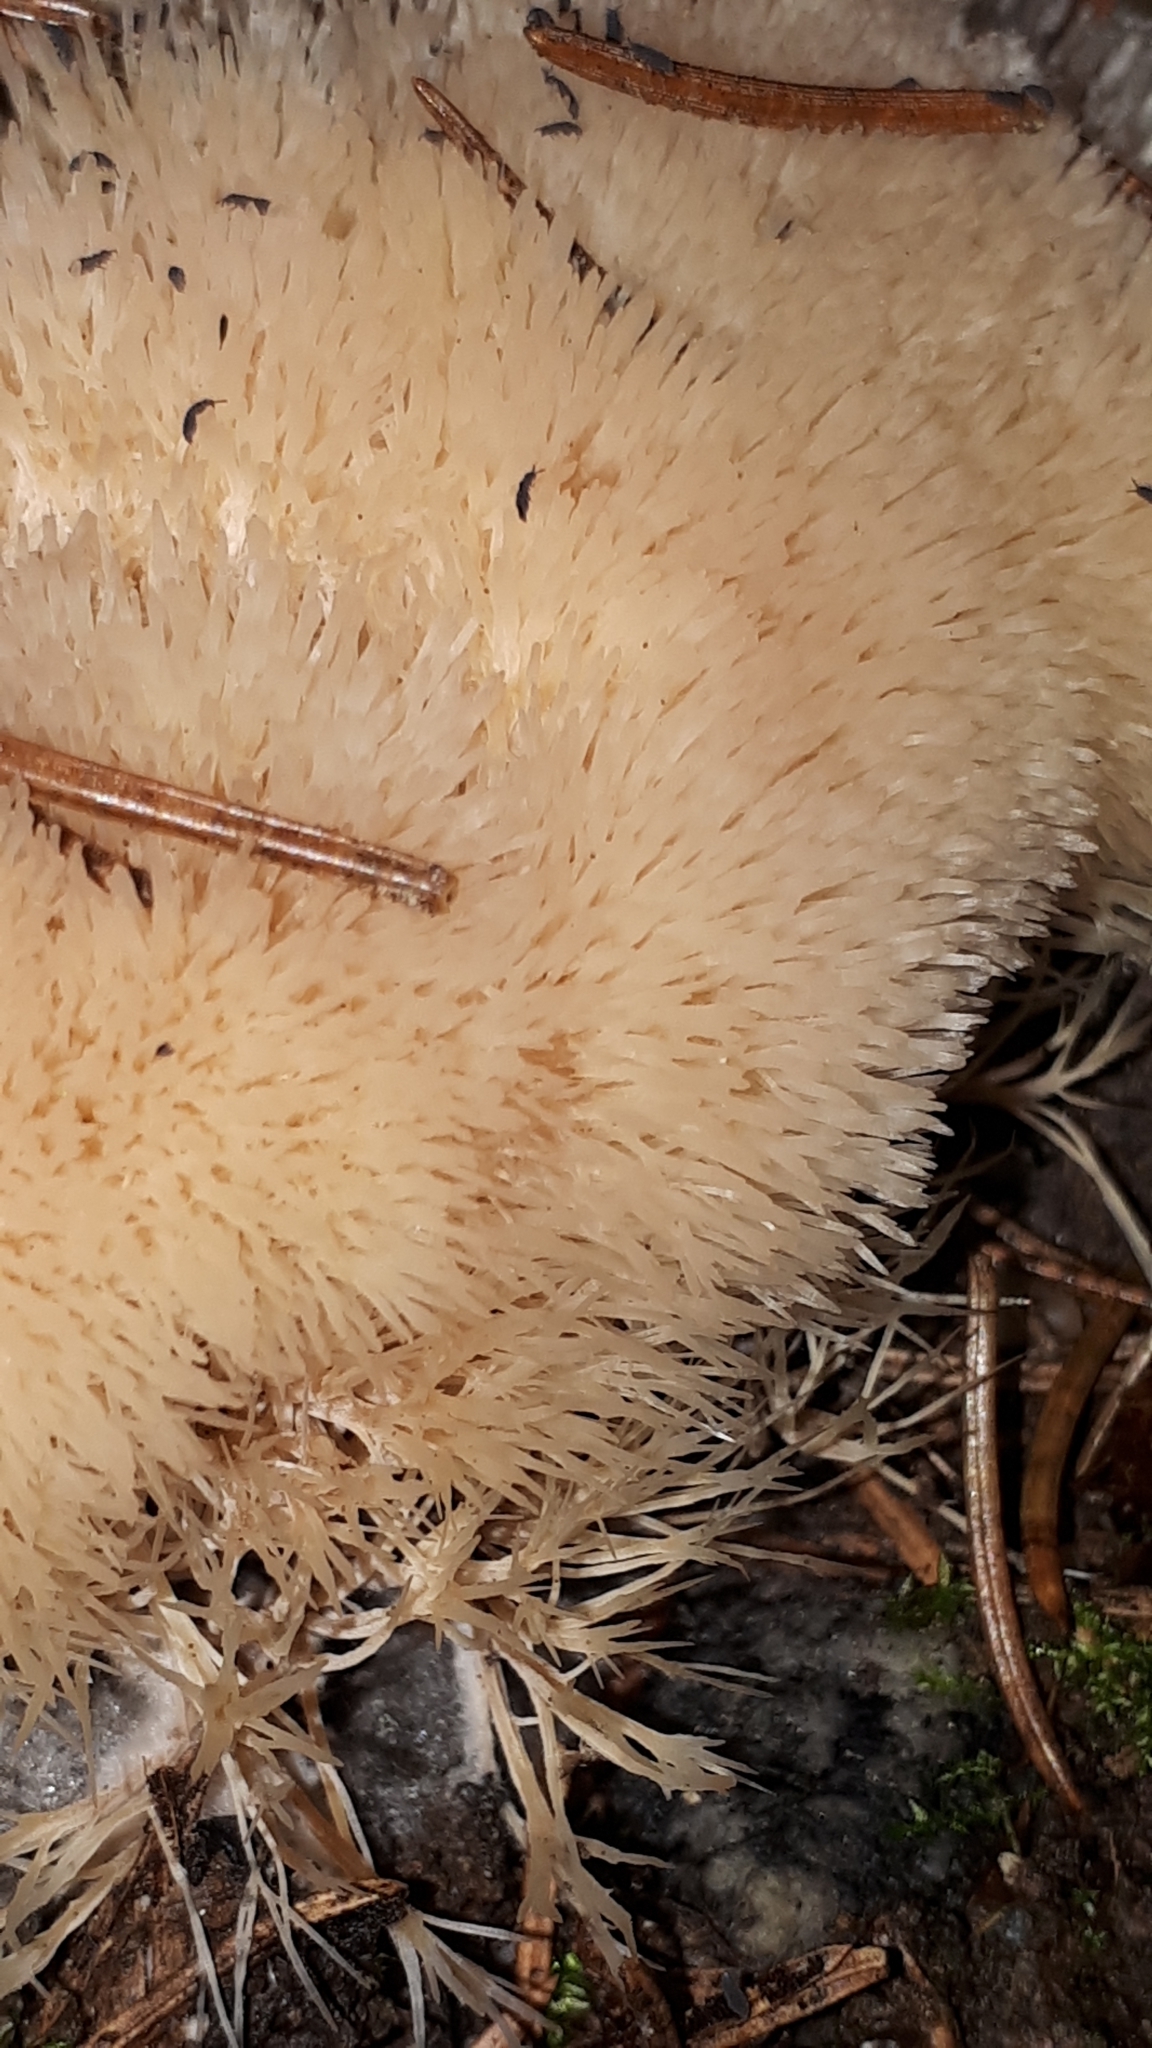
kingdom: Fungi
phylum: Basidiomycota
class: Agaricomycetes
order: Agaricales
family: Pterulaceae
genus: Pterula
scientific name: Pterula subulata
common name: Angel hair coral
